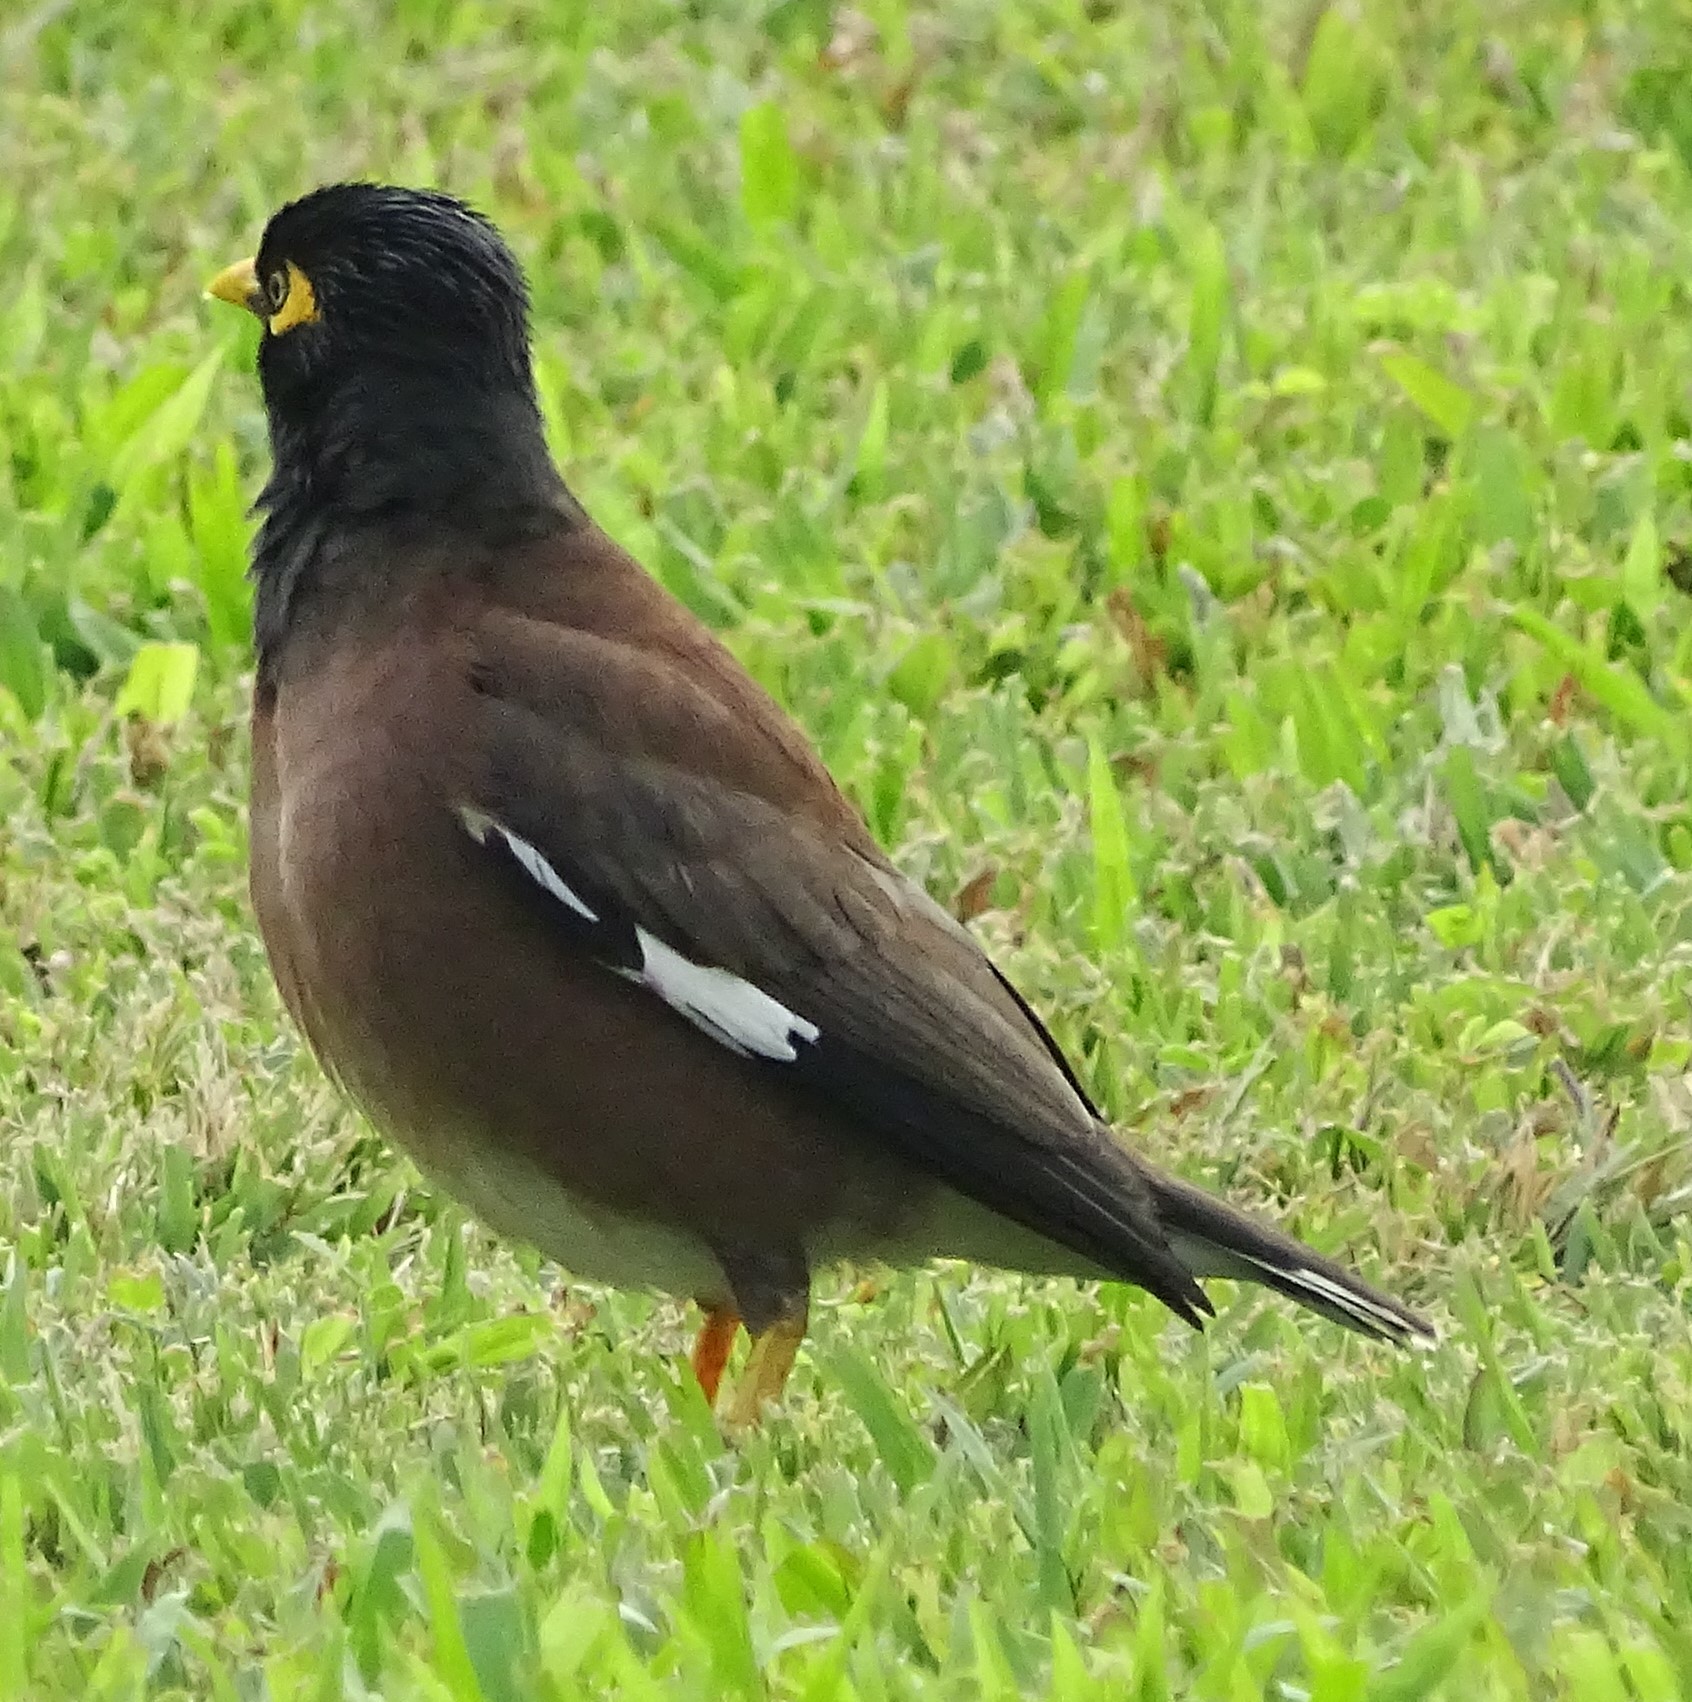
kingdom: Animalia
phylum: Chordata
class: Aves
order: Passeriformes
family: Sturnidae
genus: Acridotheres
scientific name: Acridotheres tristis
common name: Common myna
